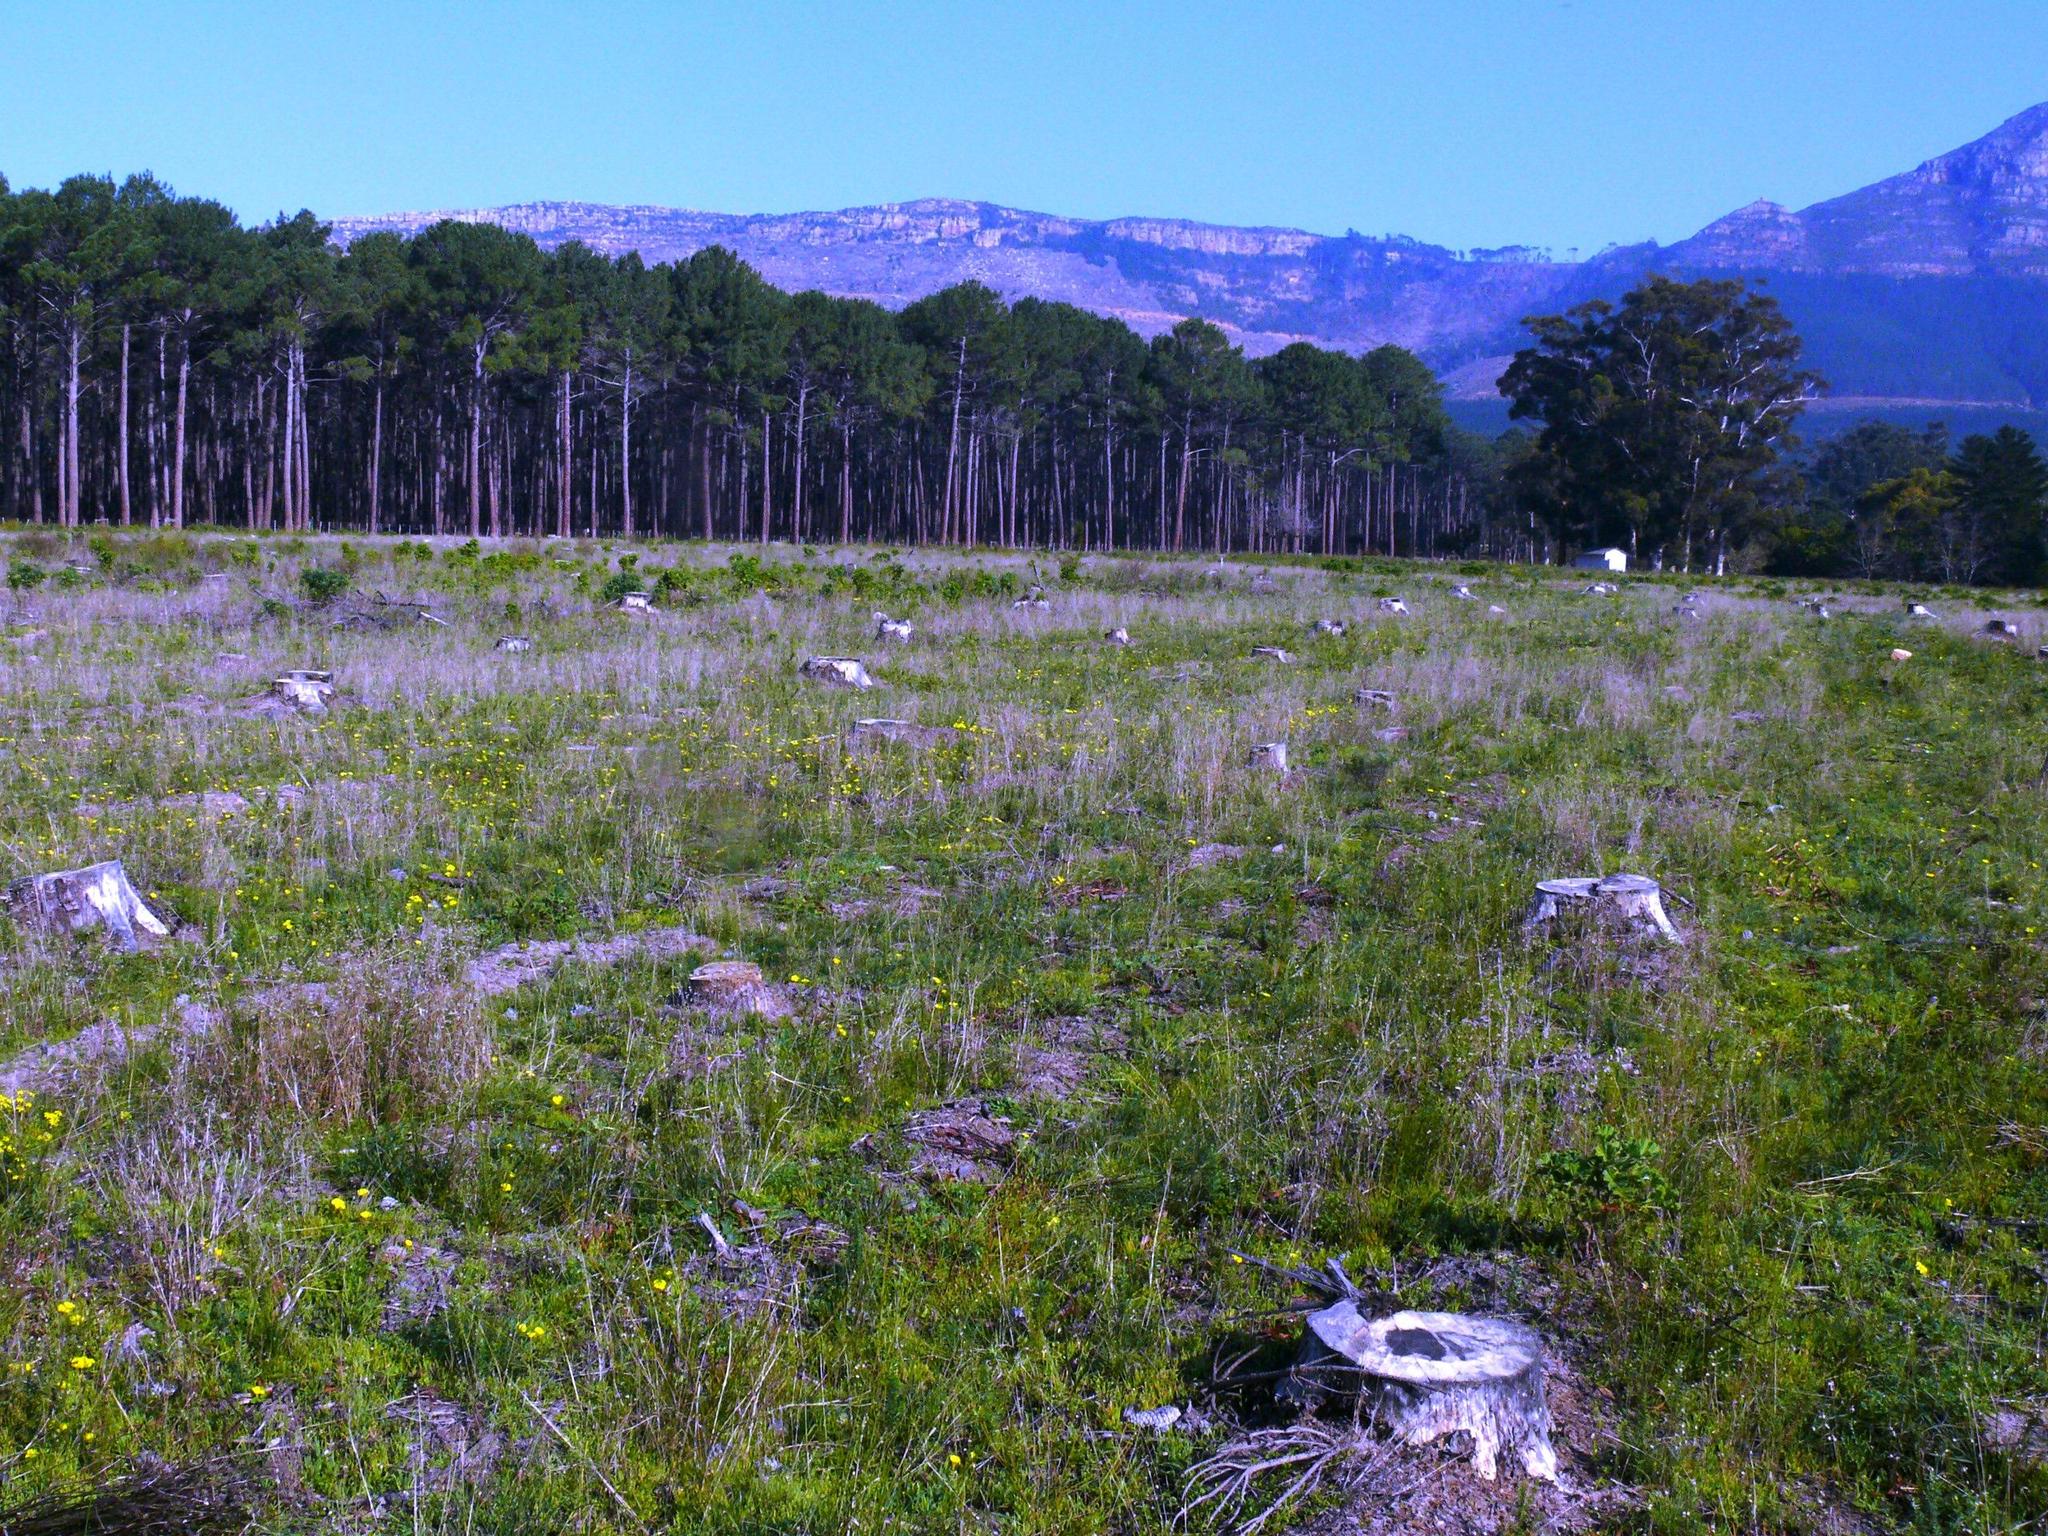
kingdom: Plantae
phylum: Tracheophyta
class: Magnoliopsida
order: Oxalidales
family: Oxalidaceae
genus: Oxalis
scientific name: Oxalis pes-caprae
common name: Bermuda-buttercup
